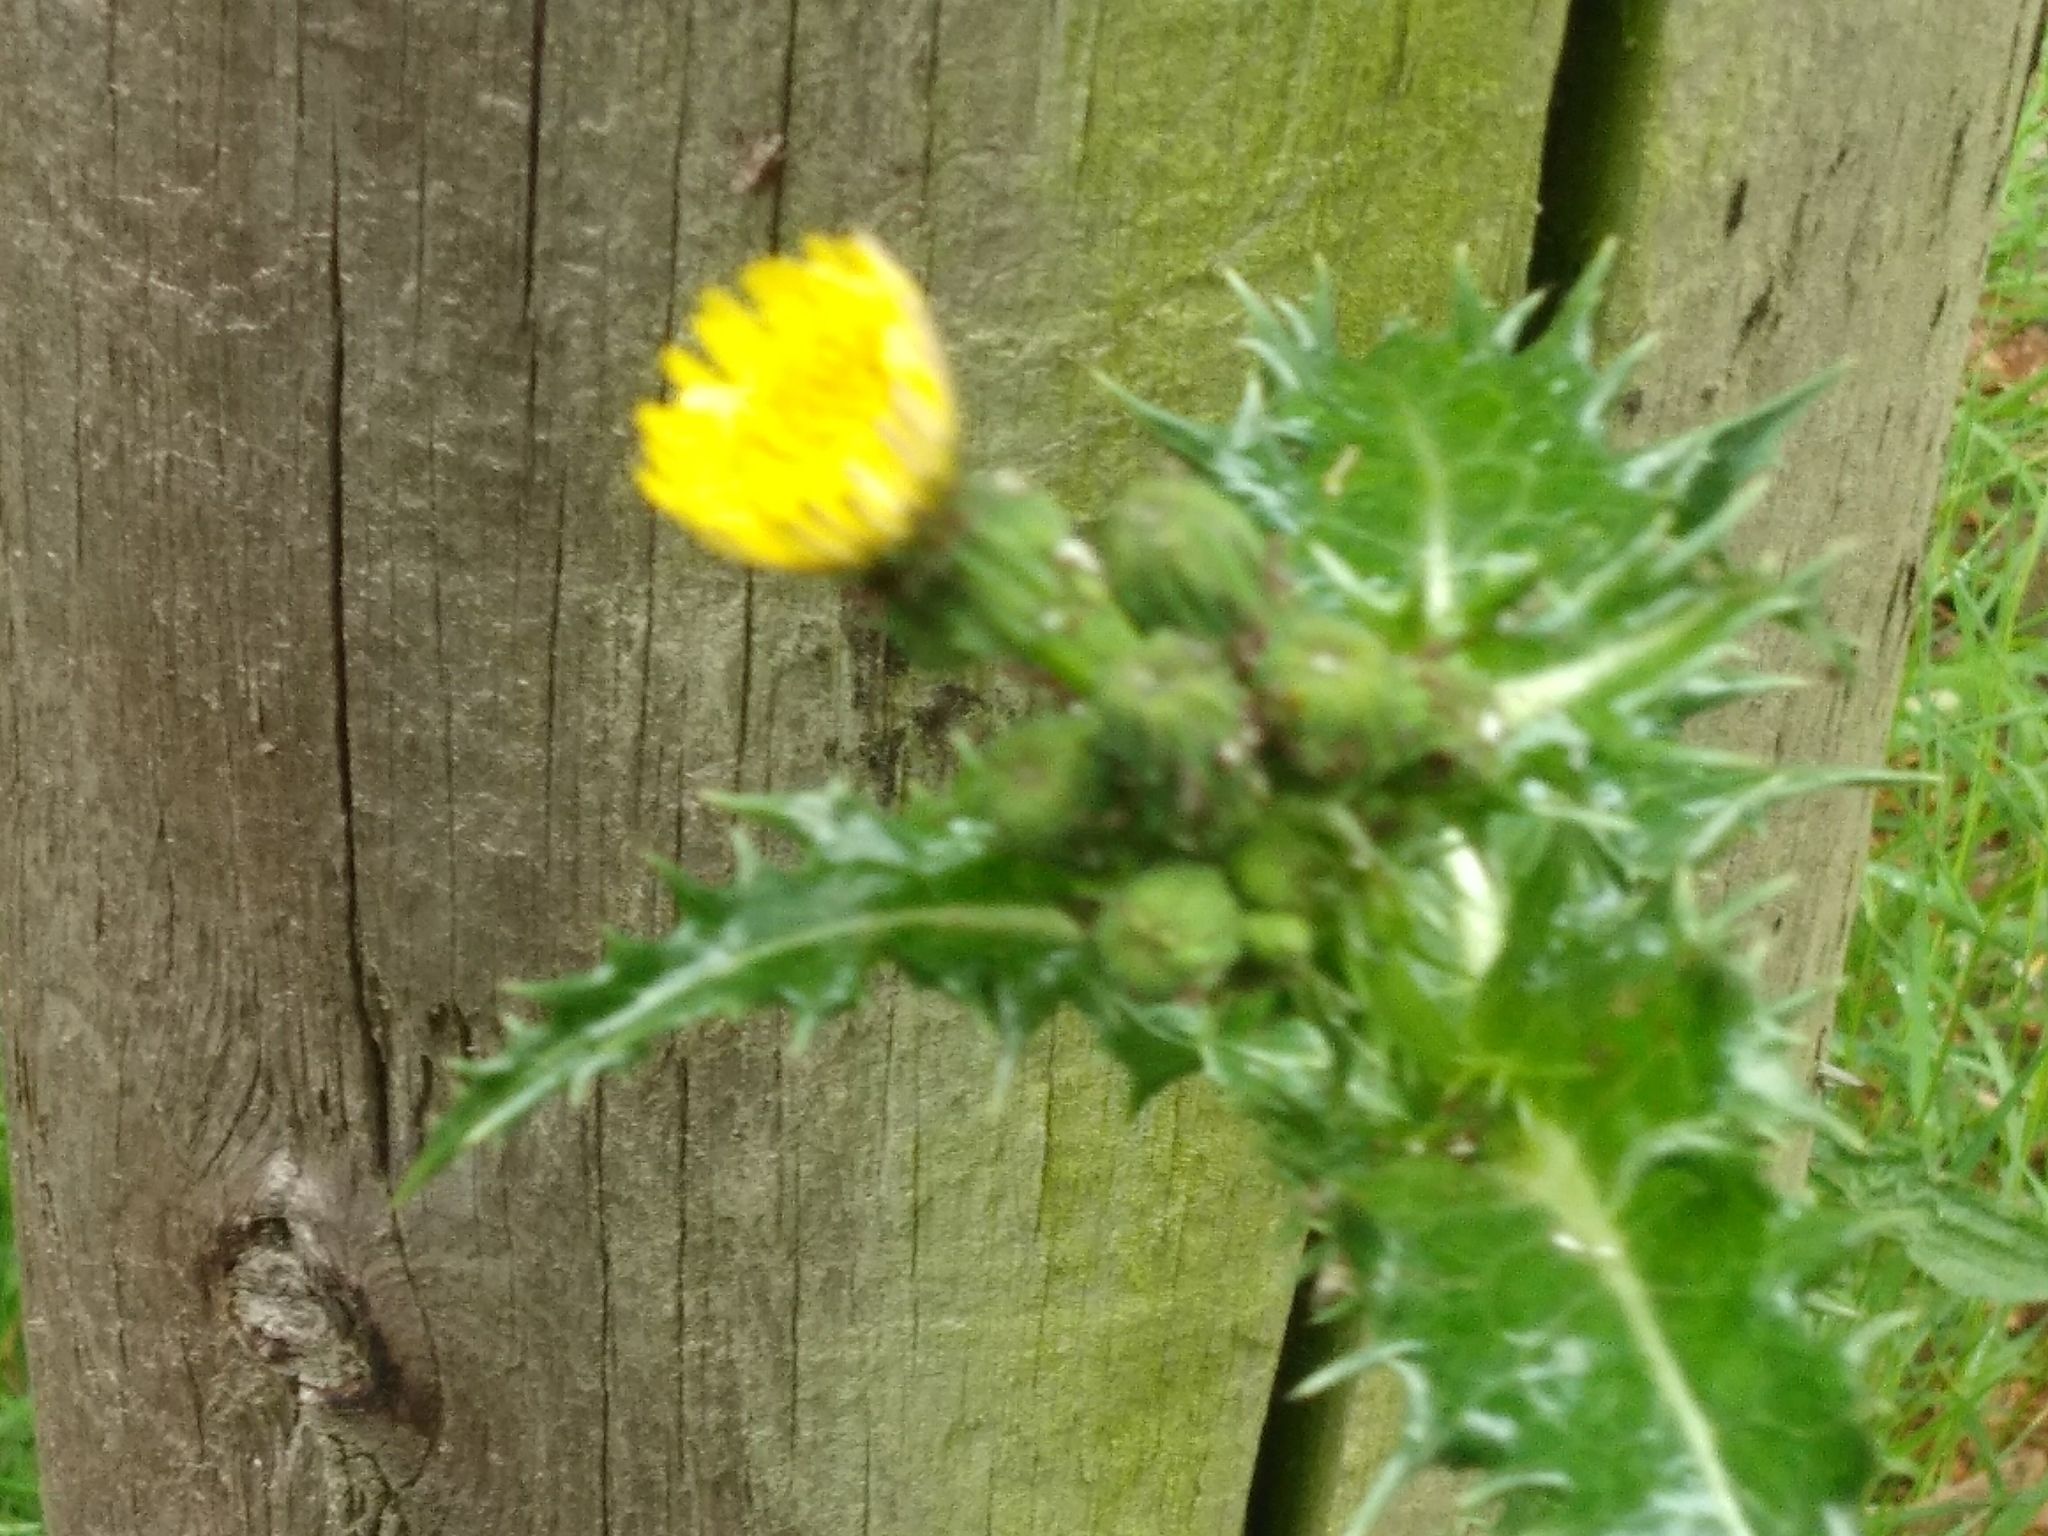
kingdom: Plantae
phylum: Tracheophyta
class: Magnoliopsida
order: Asterales
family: Asteraceae
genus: Sonchus
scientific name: Sonchus asper
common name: Prickly sow-thistle
